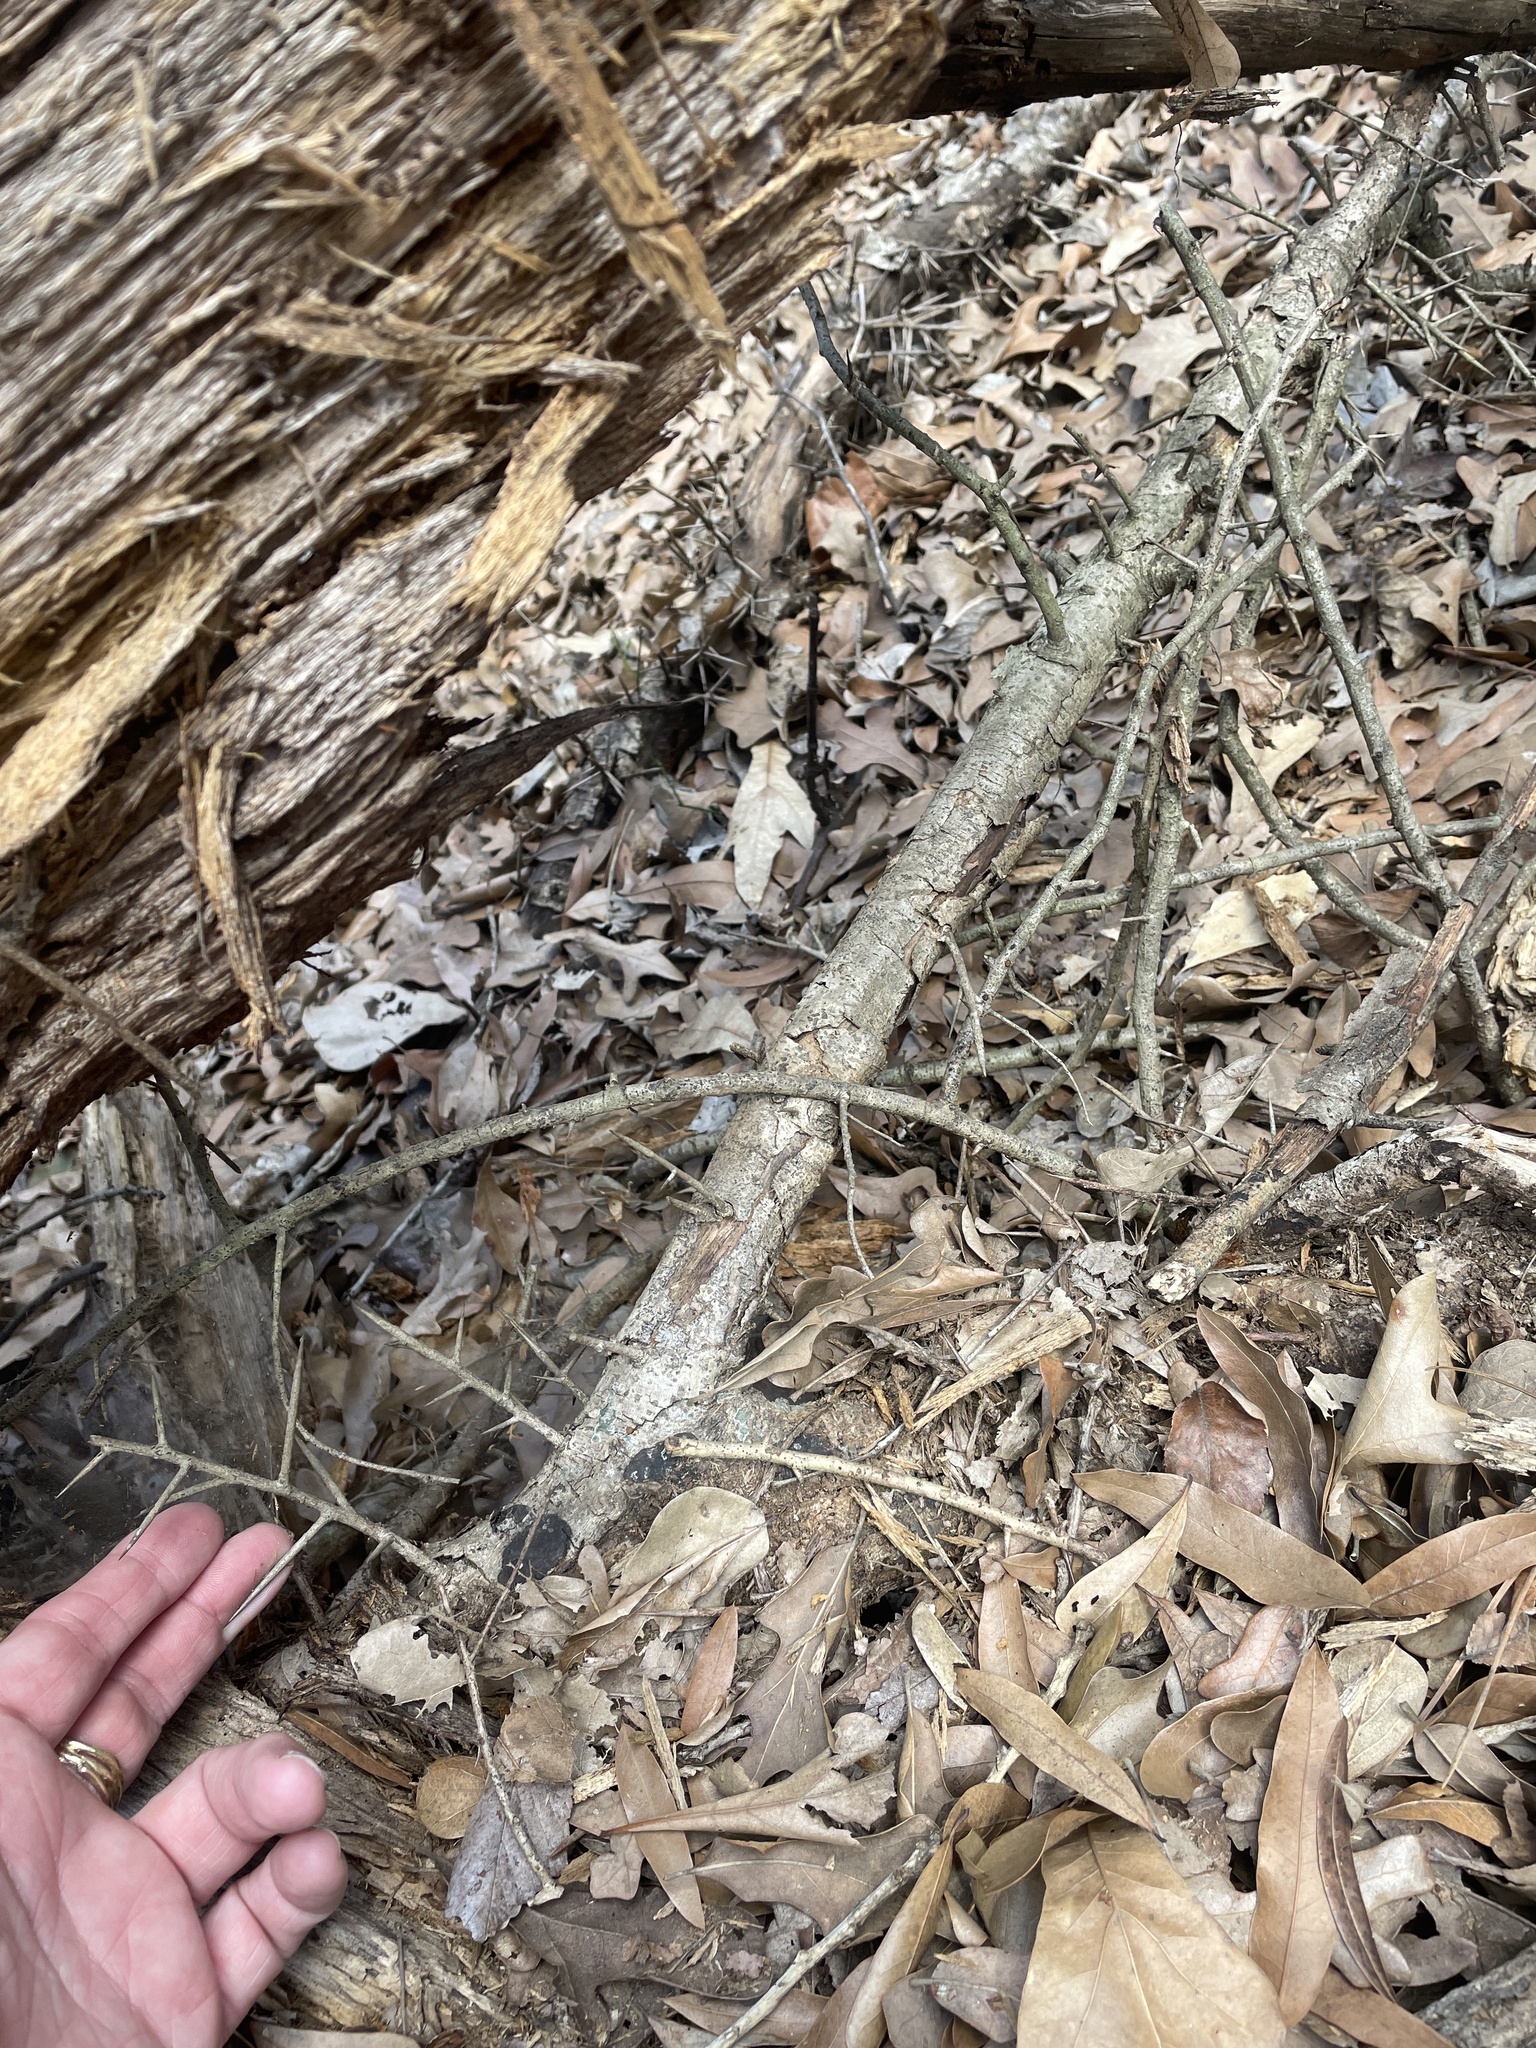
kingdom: Plantae
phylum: Tracheophyta
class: Magnoliopsida
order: Malpighiales
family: Salicaceae
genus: Xylosma
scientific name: Xylosma racemosum
